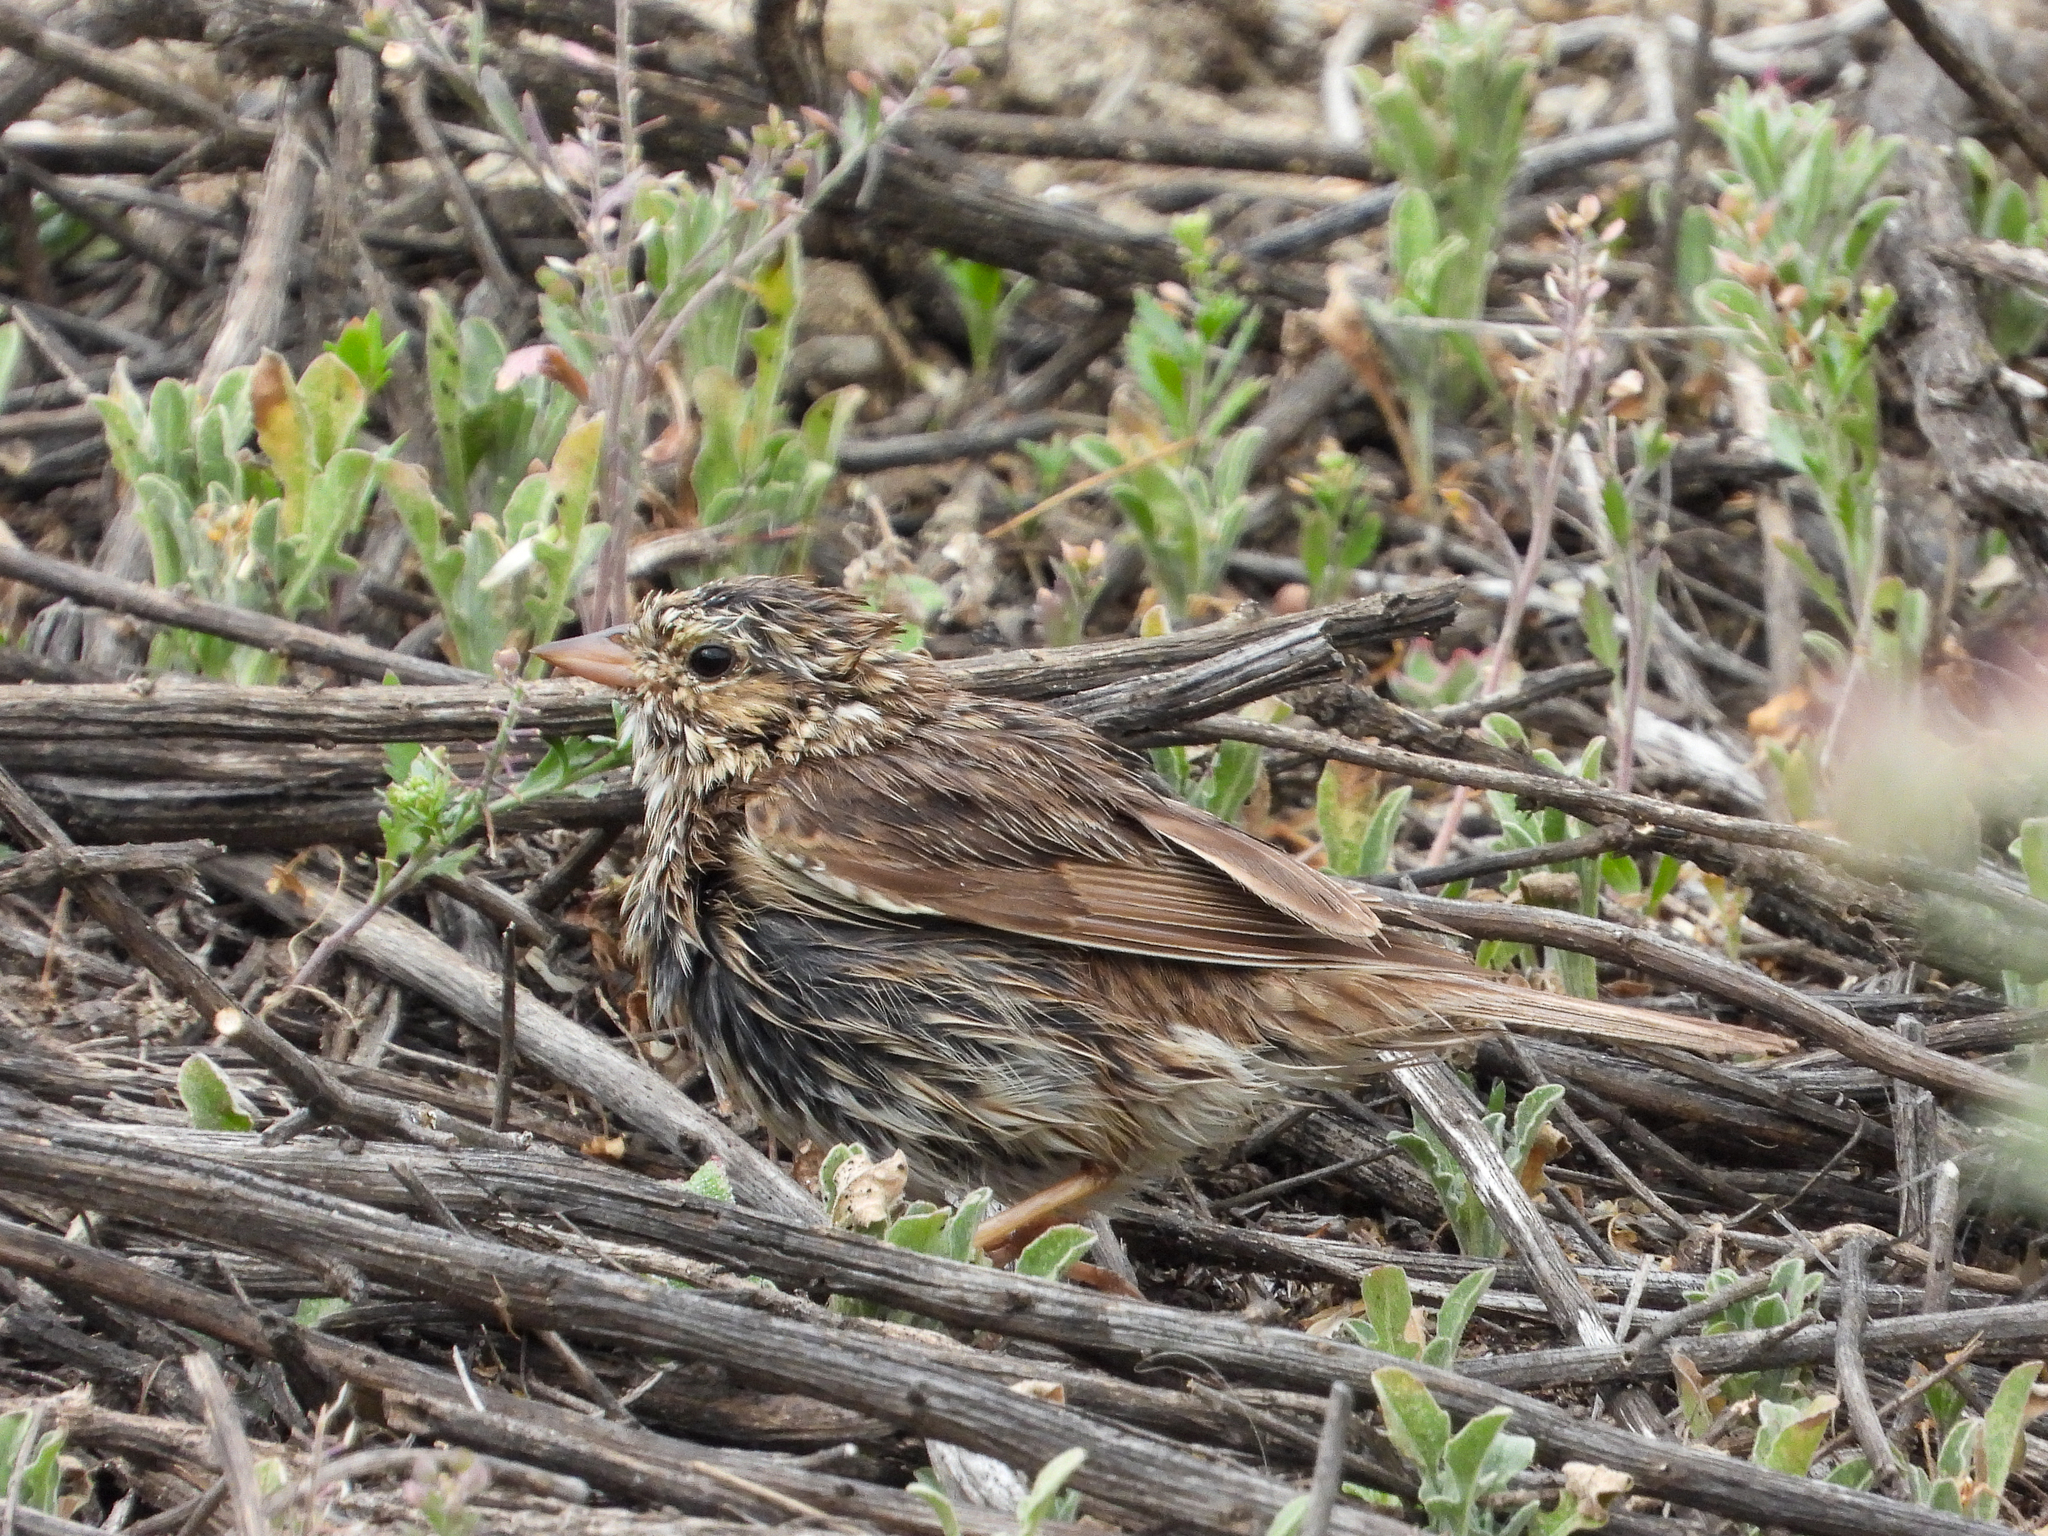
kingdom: Animalia
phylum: Chordata
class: Aves
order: Passeriformes
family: Passerellidae
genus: Passerculus
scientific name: Passerculus sandwichensis
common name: Savannah sparrow
